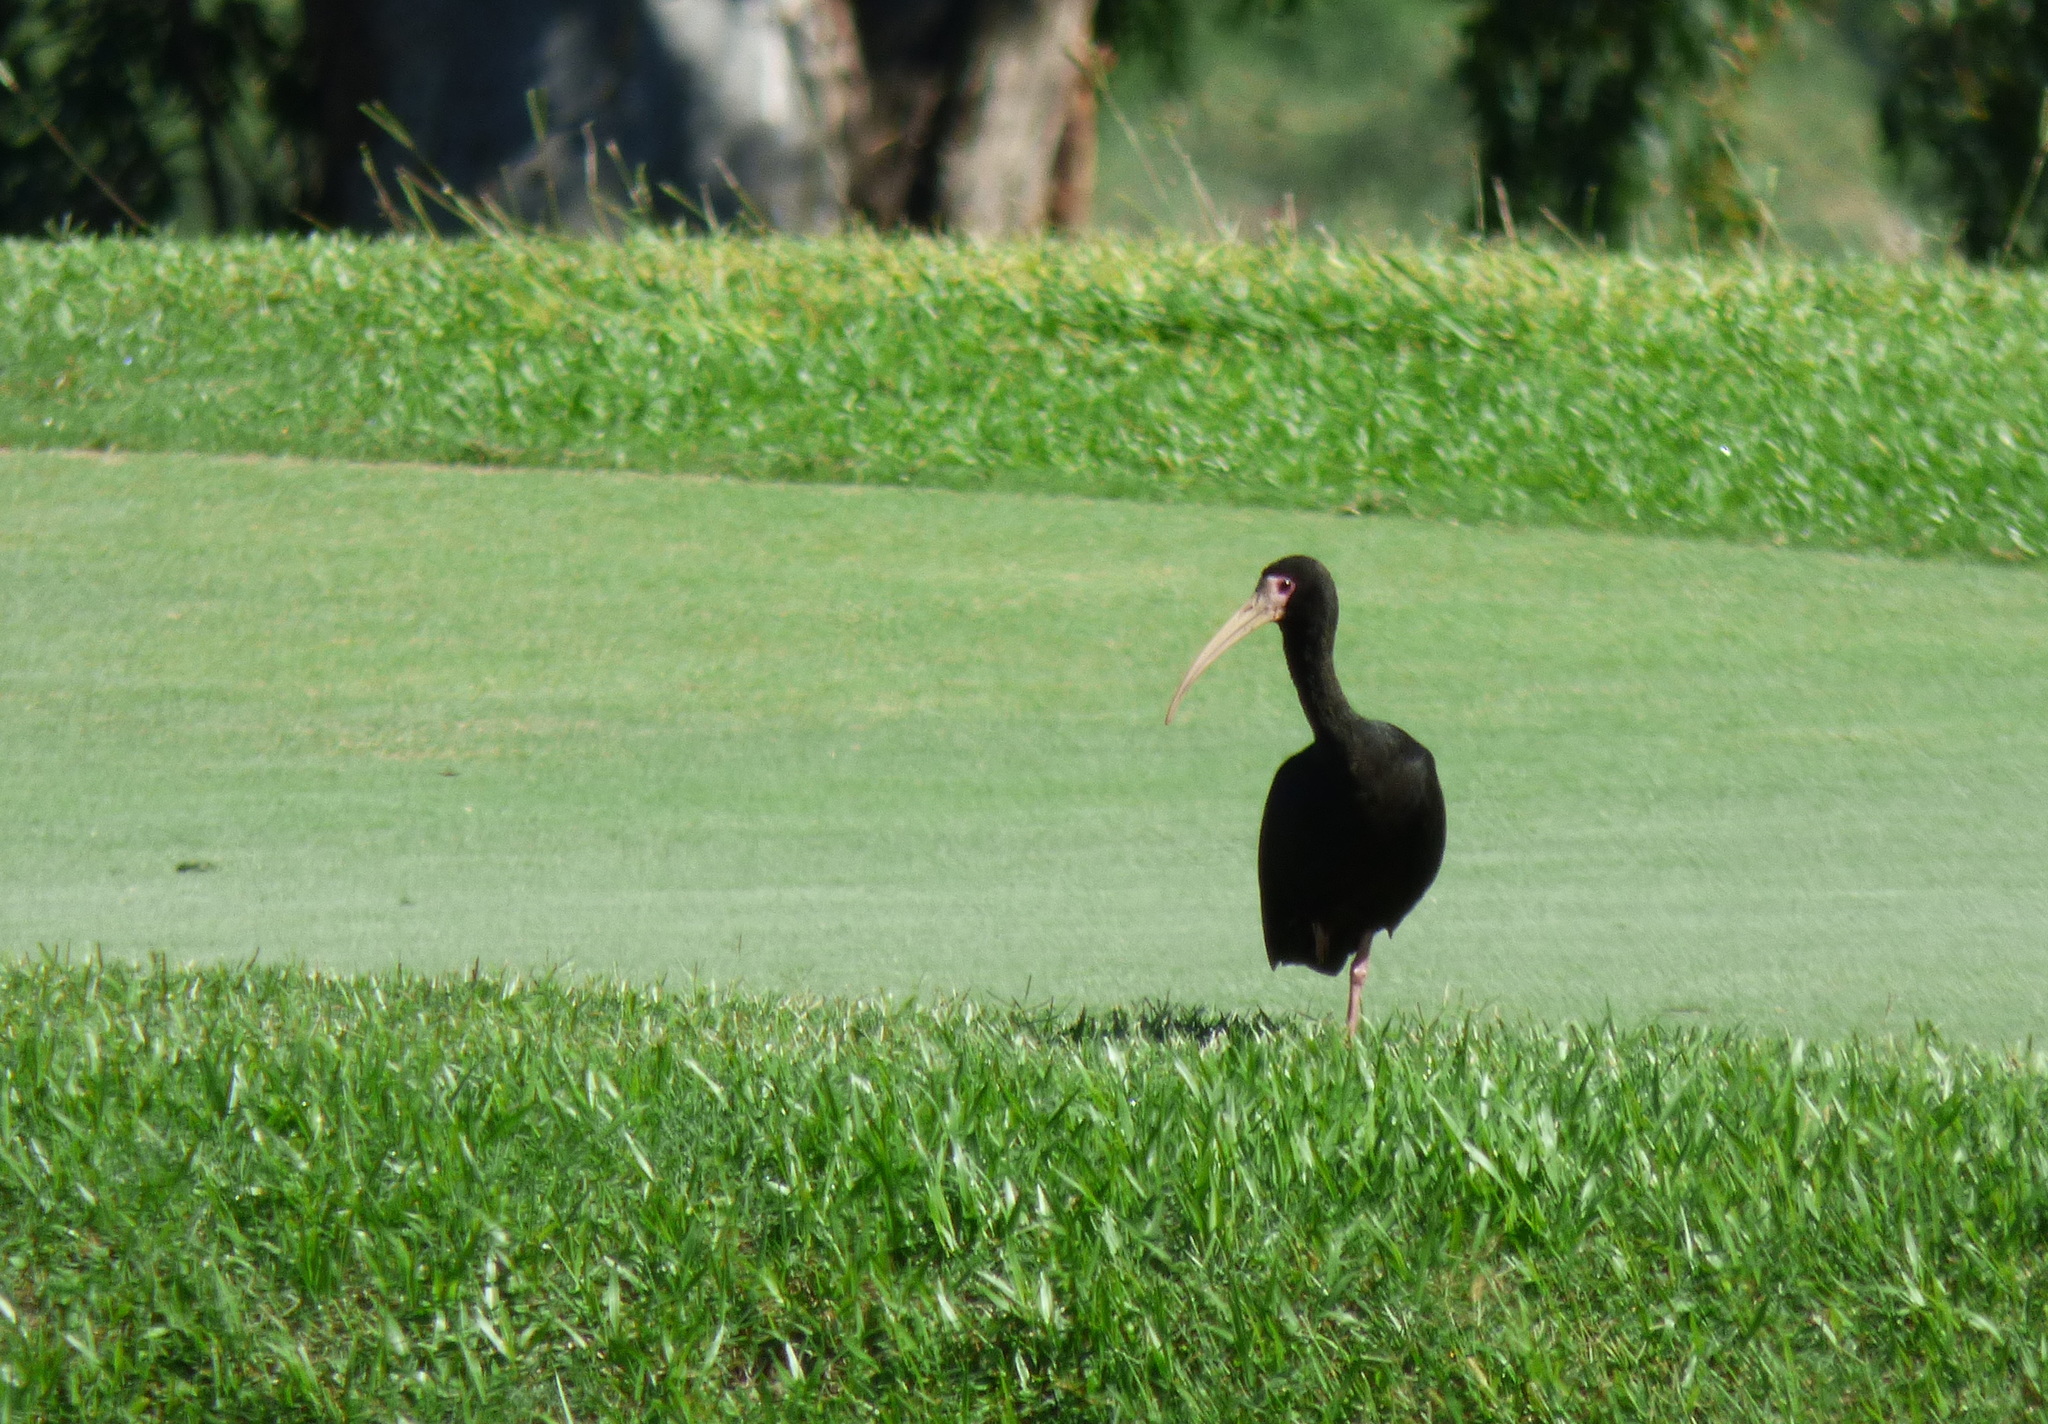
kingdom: Animalia
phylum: Chordata
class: Aves
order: Pelecaniformes
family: Threskiornithidae
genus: Phimosus
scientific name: Phimosus infuscatus
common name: Bare-faced ibis
